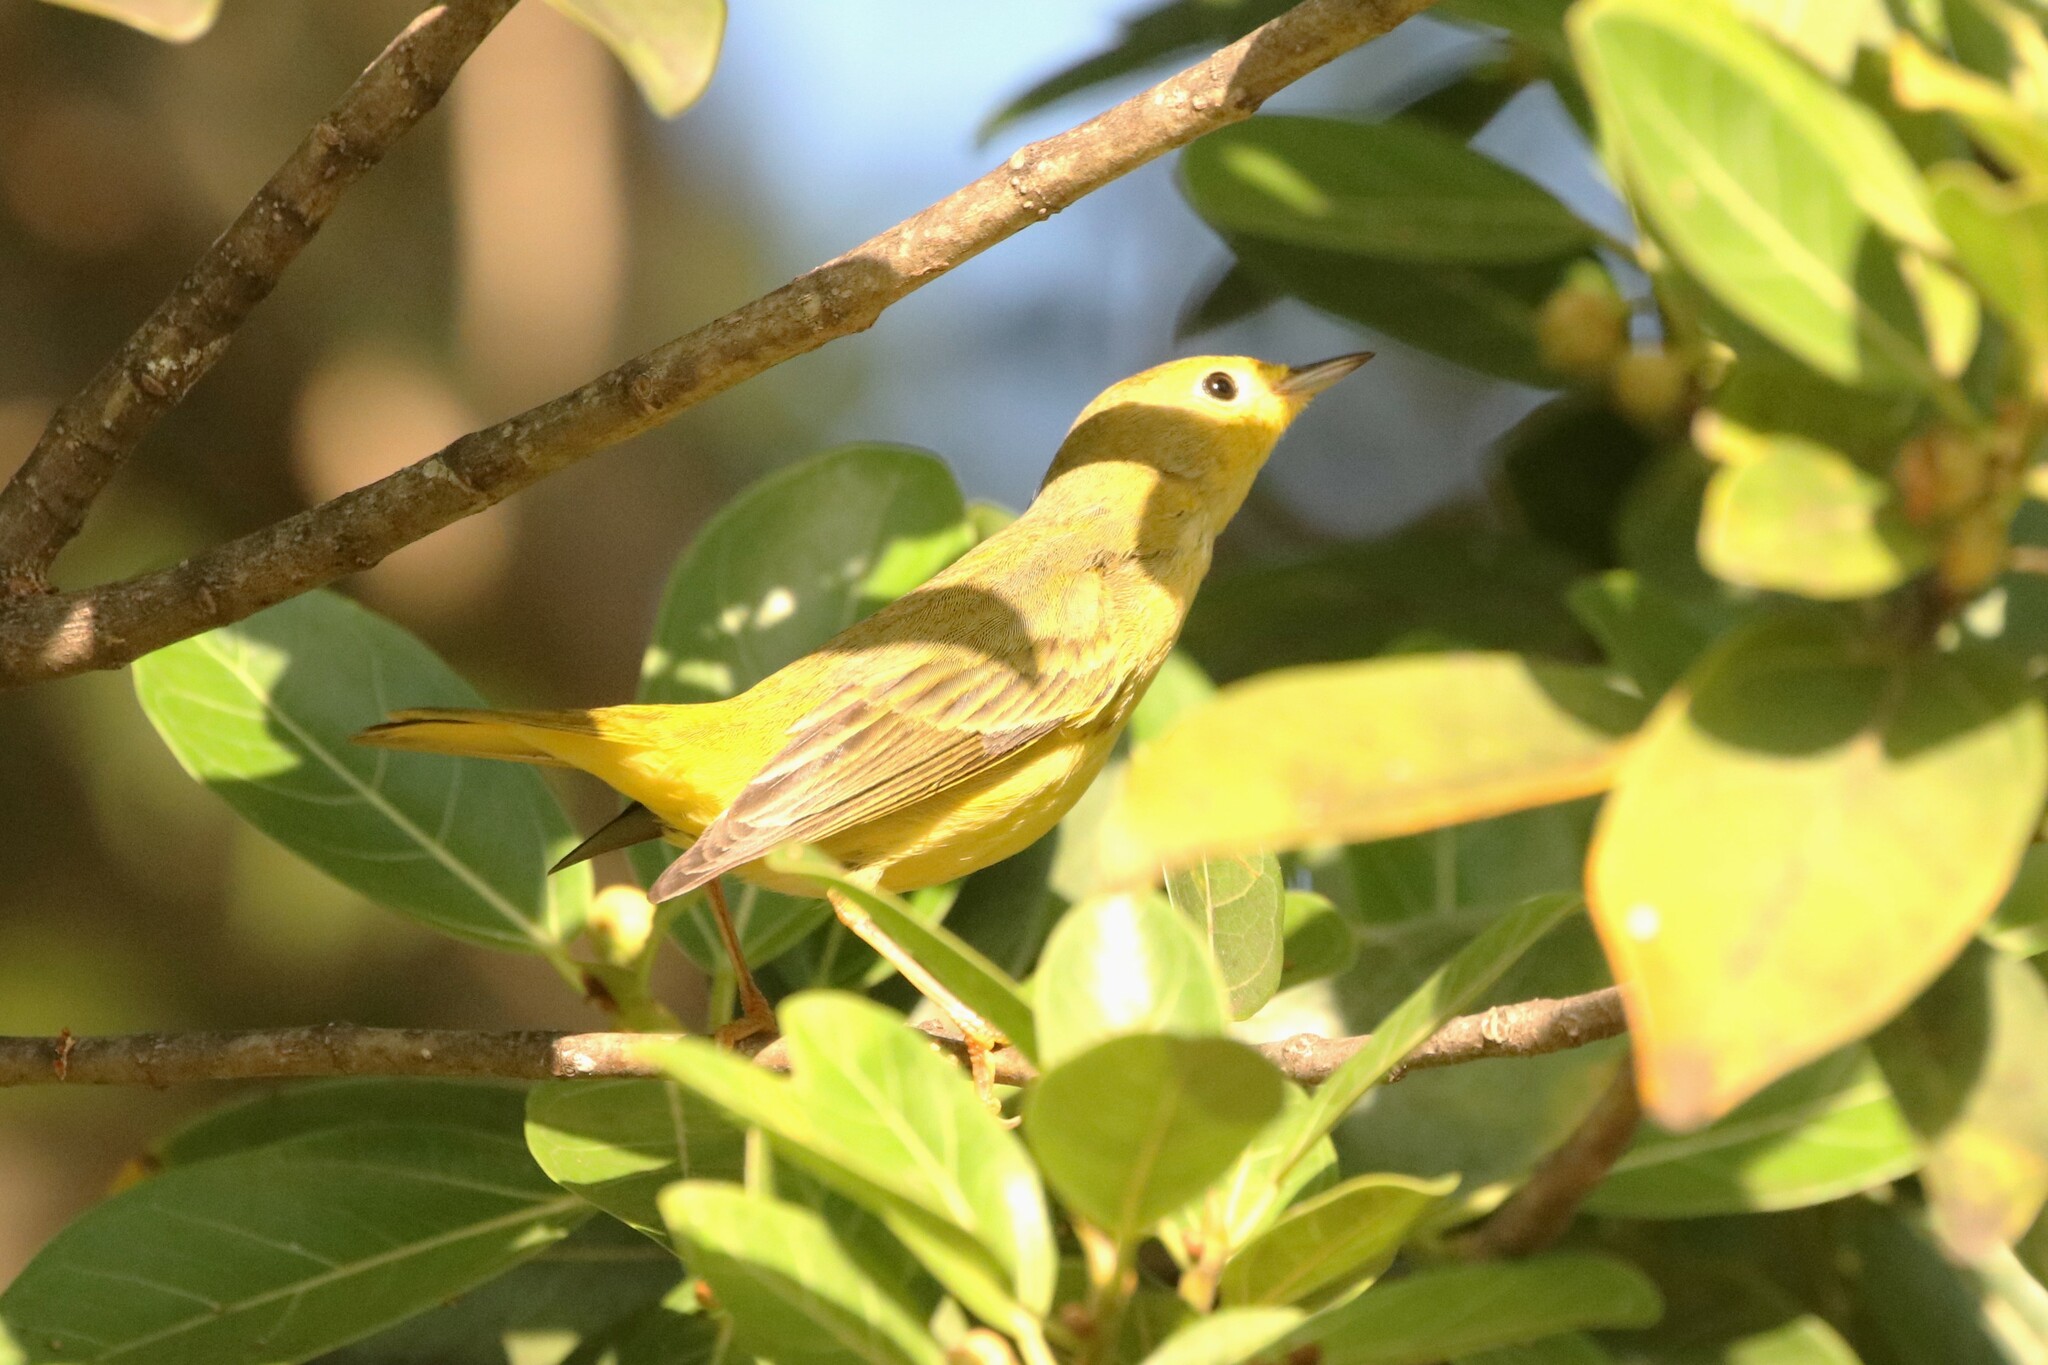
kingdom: Animalia
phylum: Chordata
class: Aves
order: Passeriformes
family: Parulidae
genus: Setophaga
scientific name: Setophaga petechia
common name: Yellow warbler
